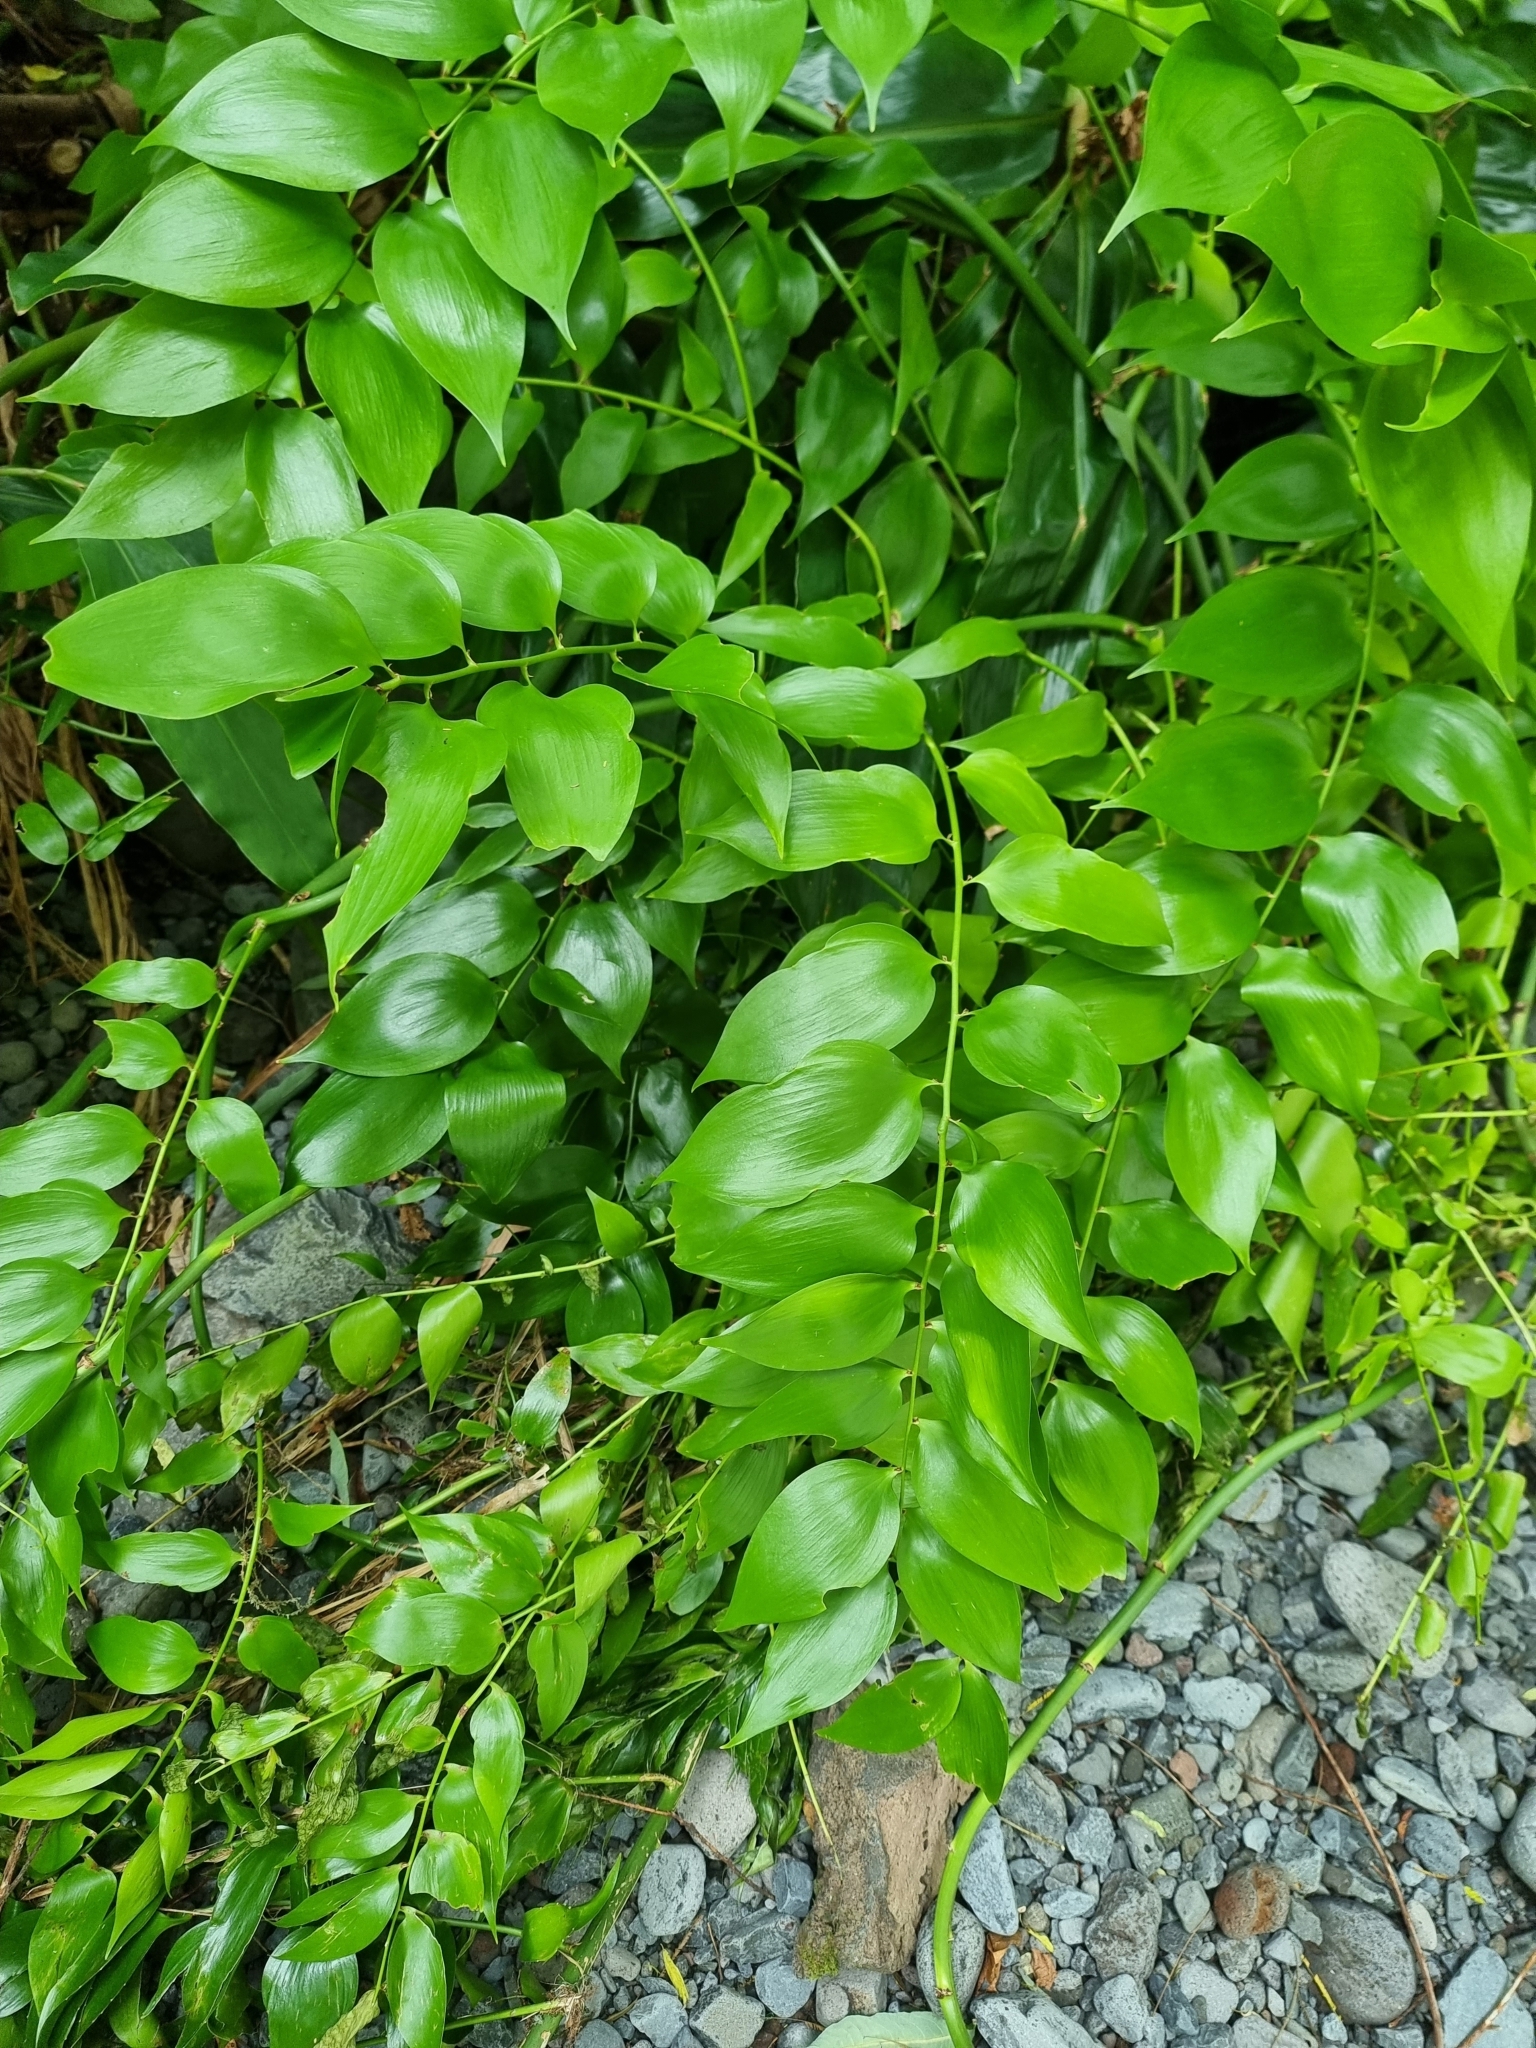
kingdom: Plantae
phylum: Tracheophyta
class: Liliopsida
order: Asparagales
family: Asparagaceae
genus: Semele
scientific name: Semele androgyna
